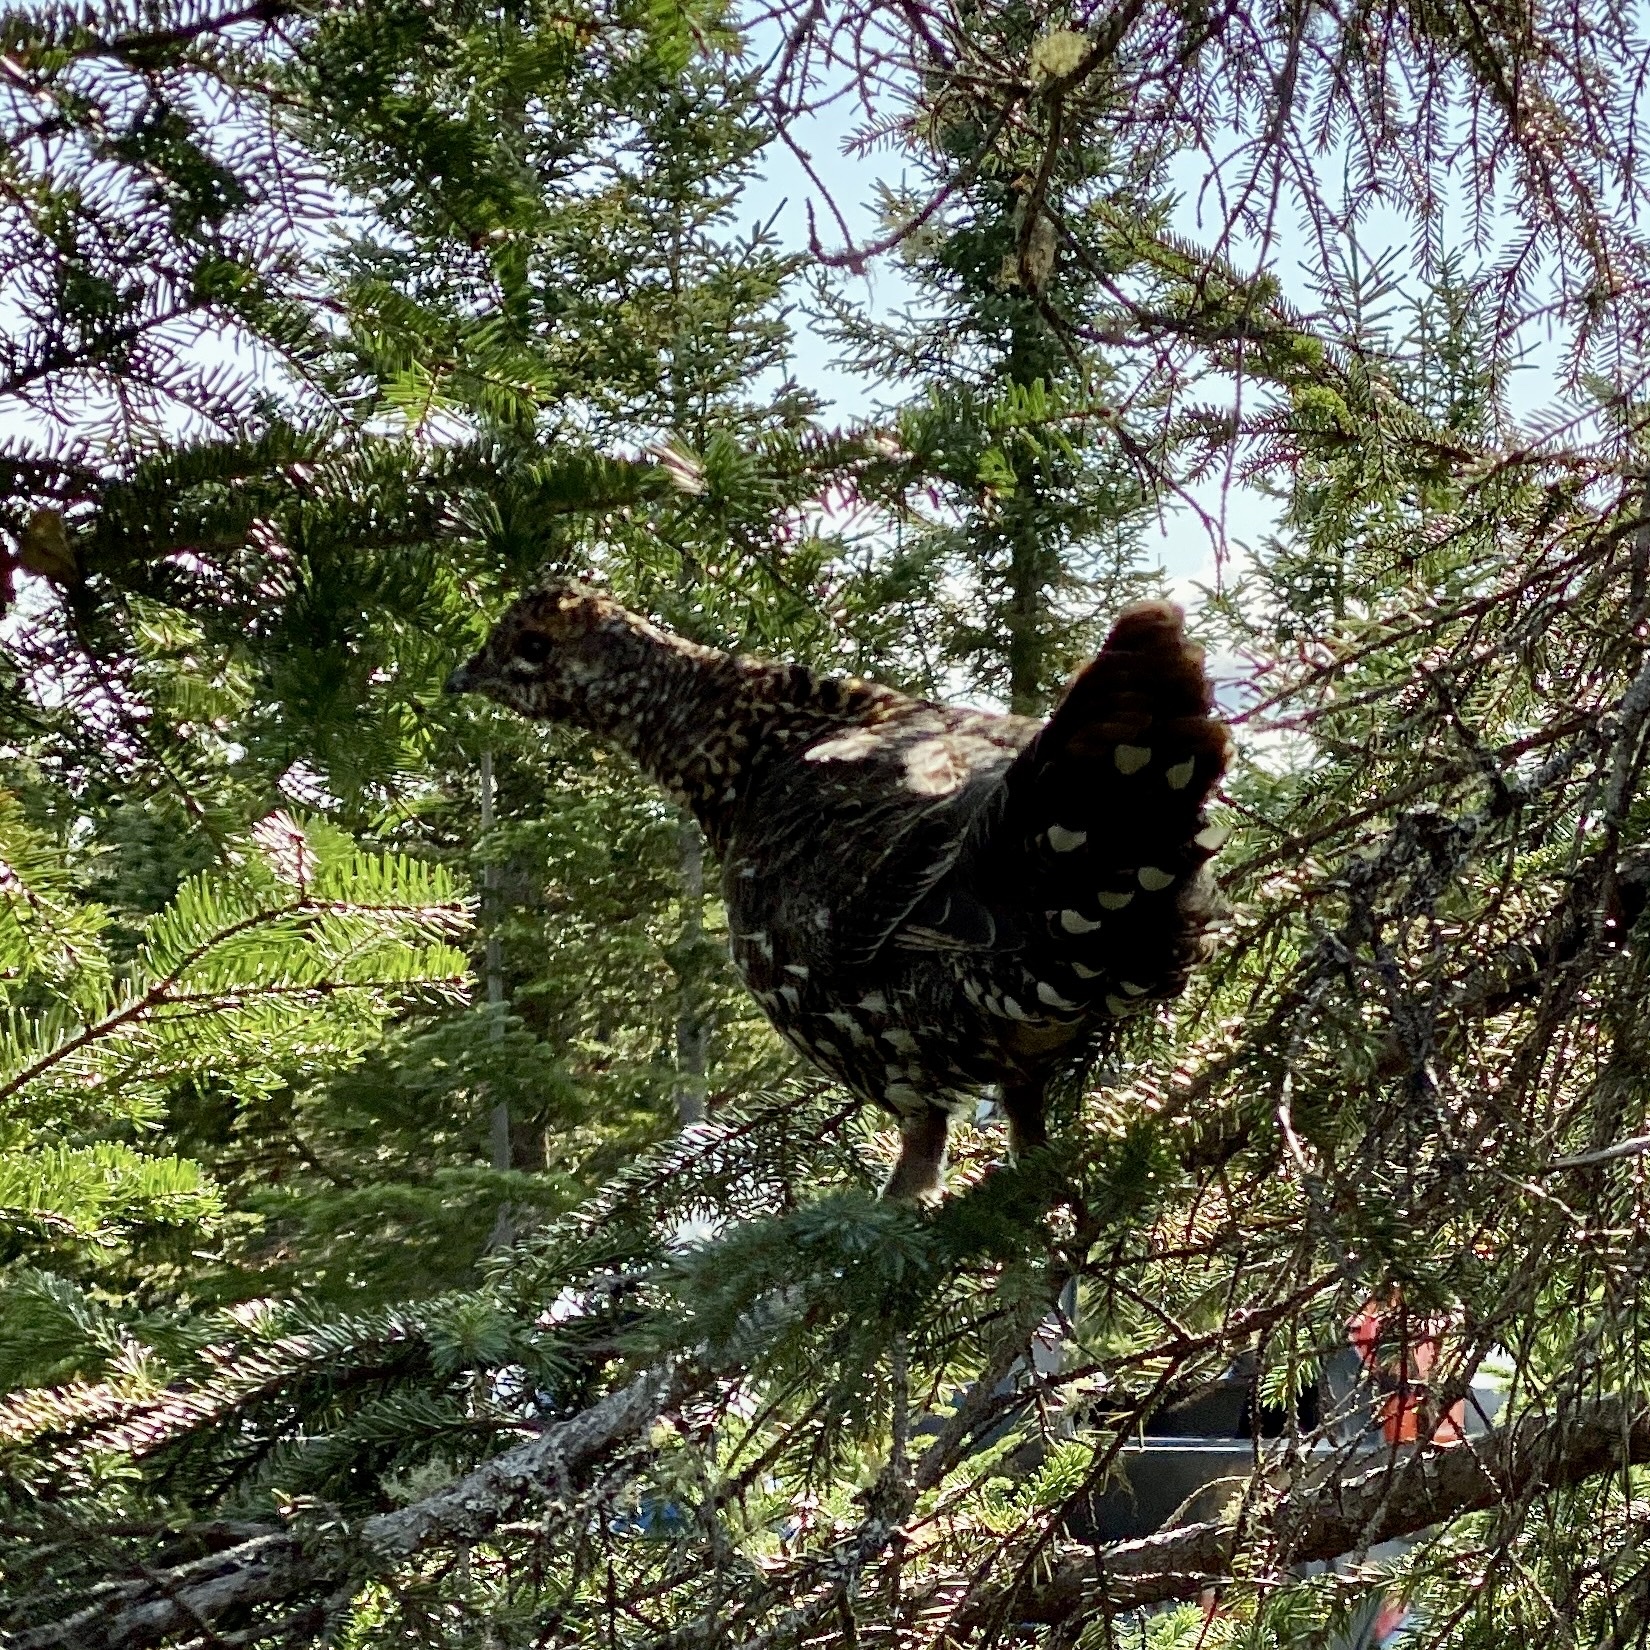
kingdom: Animalia
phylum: Chordata
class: Aves
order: Galliformes
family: Phasianidae
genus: Canachites
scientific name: Canachites canadensis
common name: Spruce grouse
